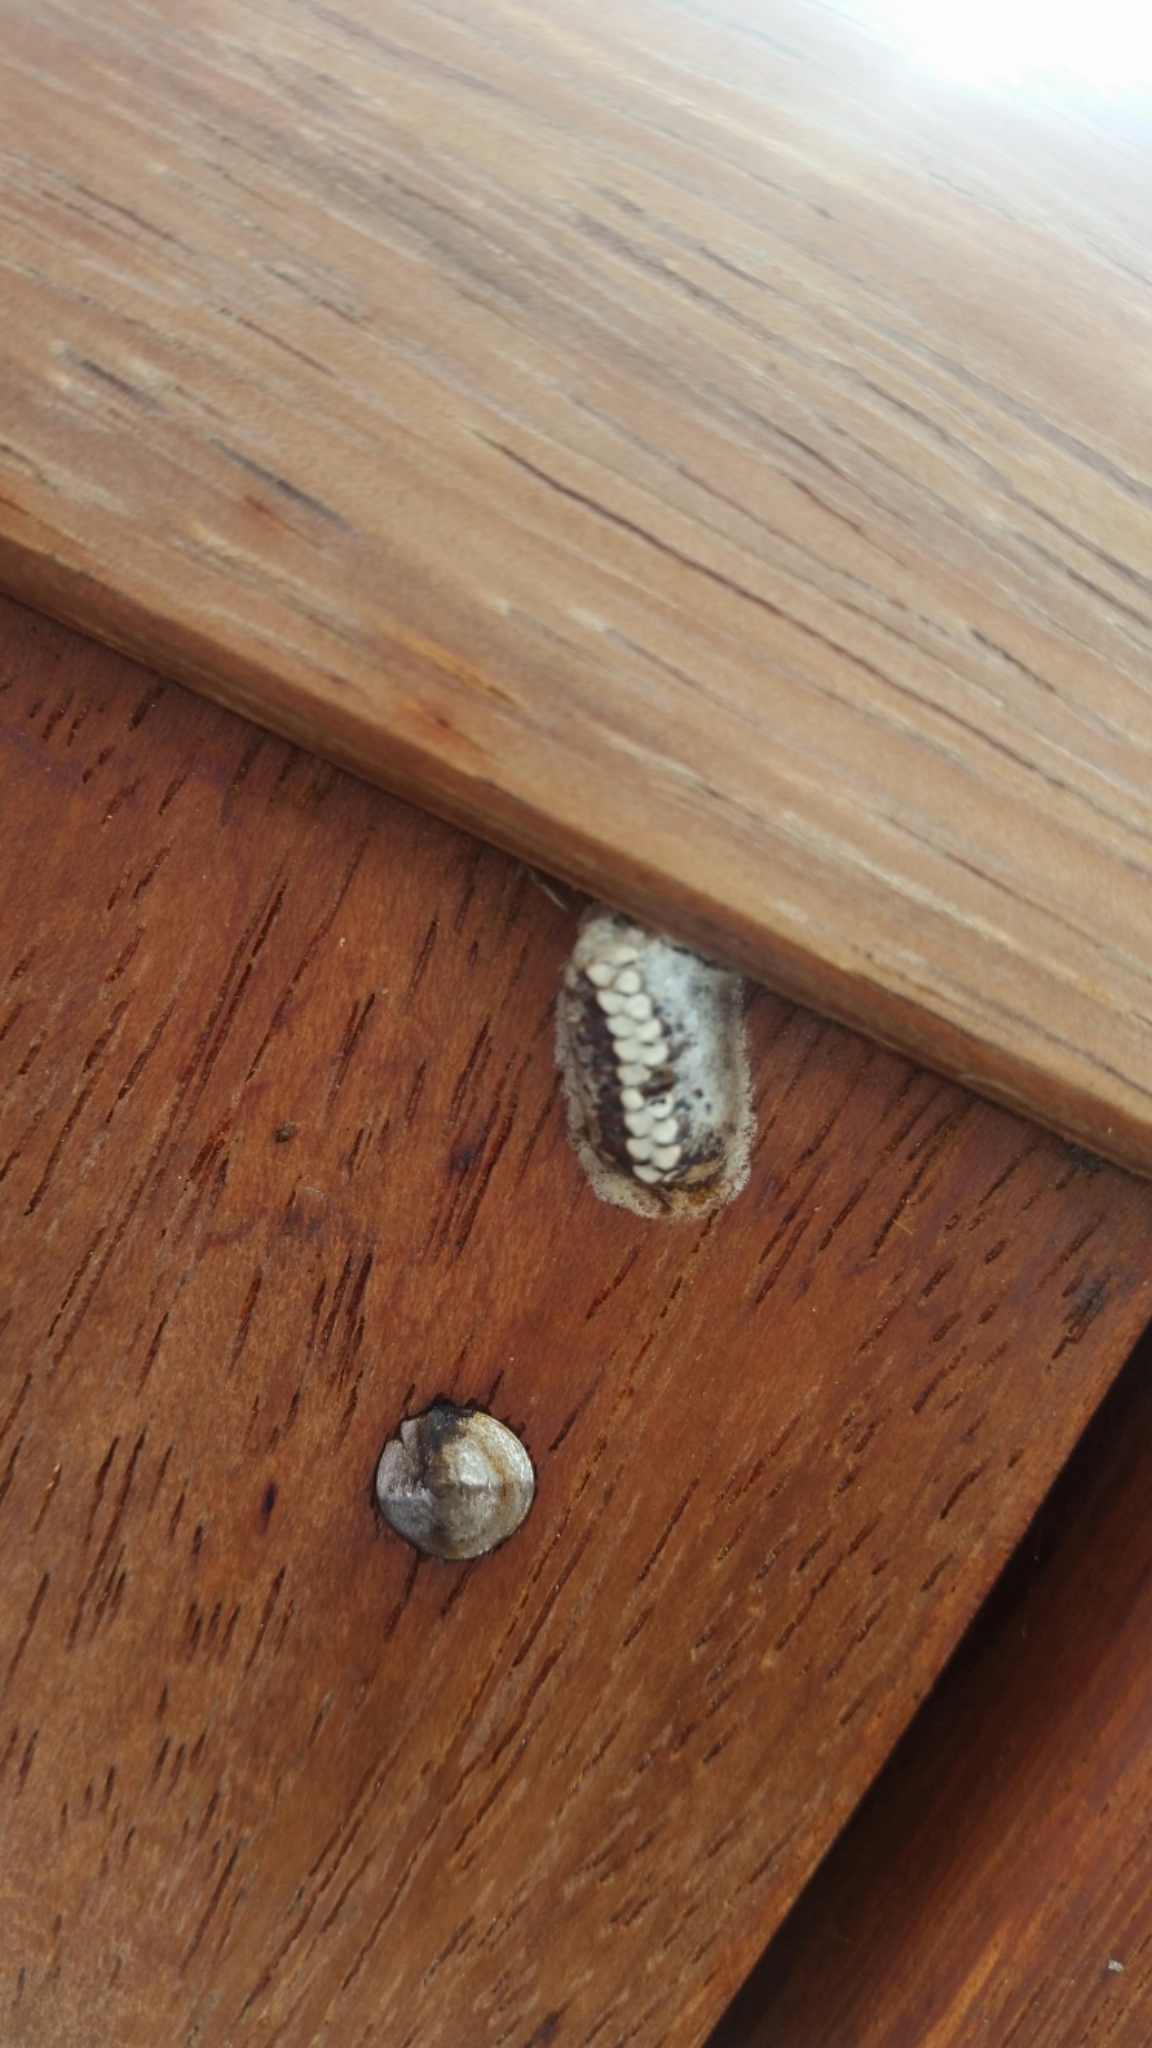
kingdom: Animalia
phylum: Arthropoda
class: Insecta
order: Mantodea
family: Mantidae
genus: Orthodera
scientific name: Orthodera novaezealandiae
